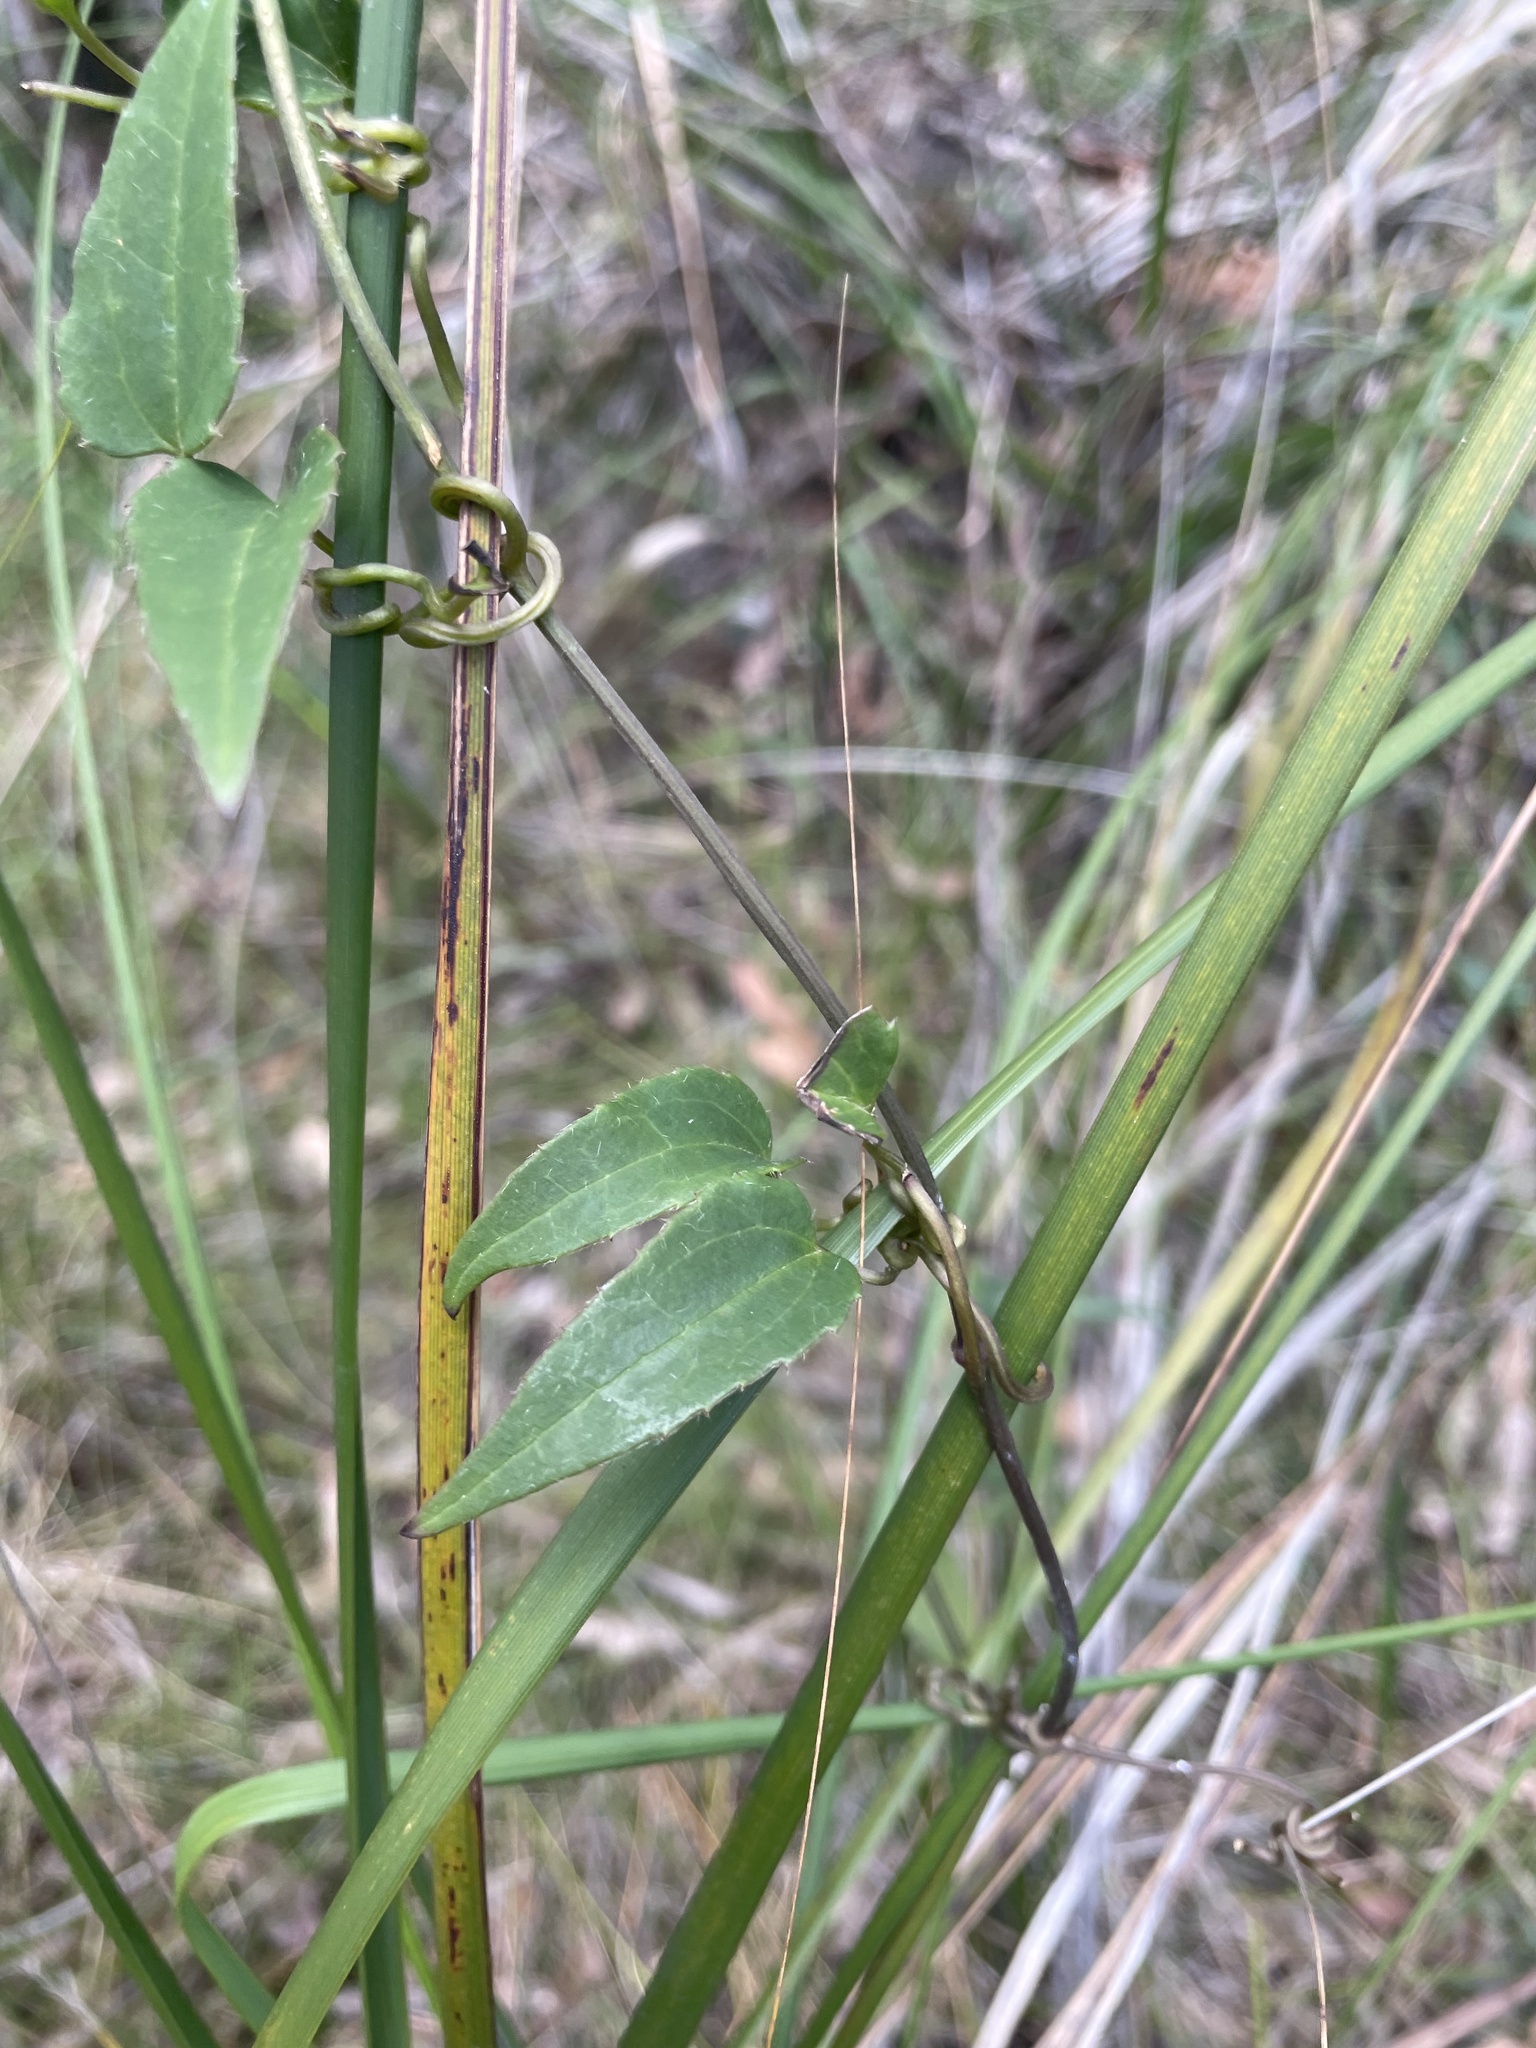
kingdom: Plantae
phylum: Tracheophyta
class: Magnoliopsida
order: Ranunculales
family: Ranunculaceae
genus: Clematis
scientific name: Clematis aristata
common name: Mountain clematis
